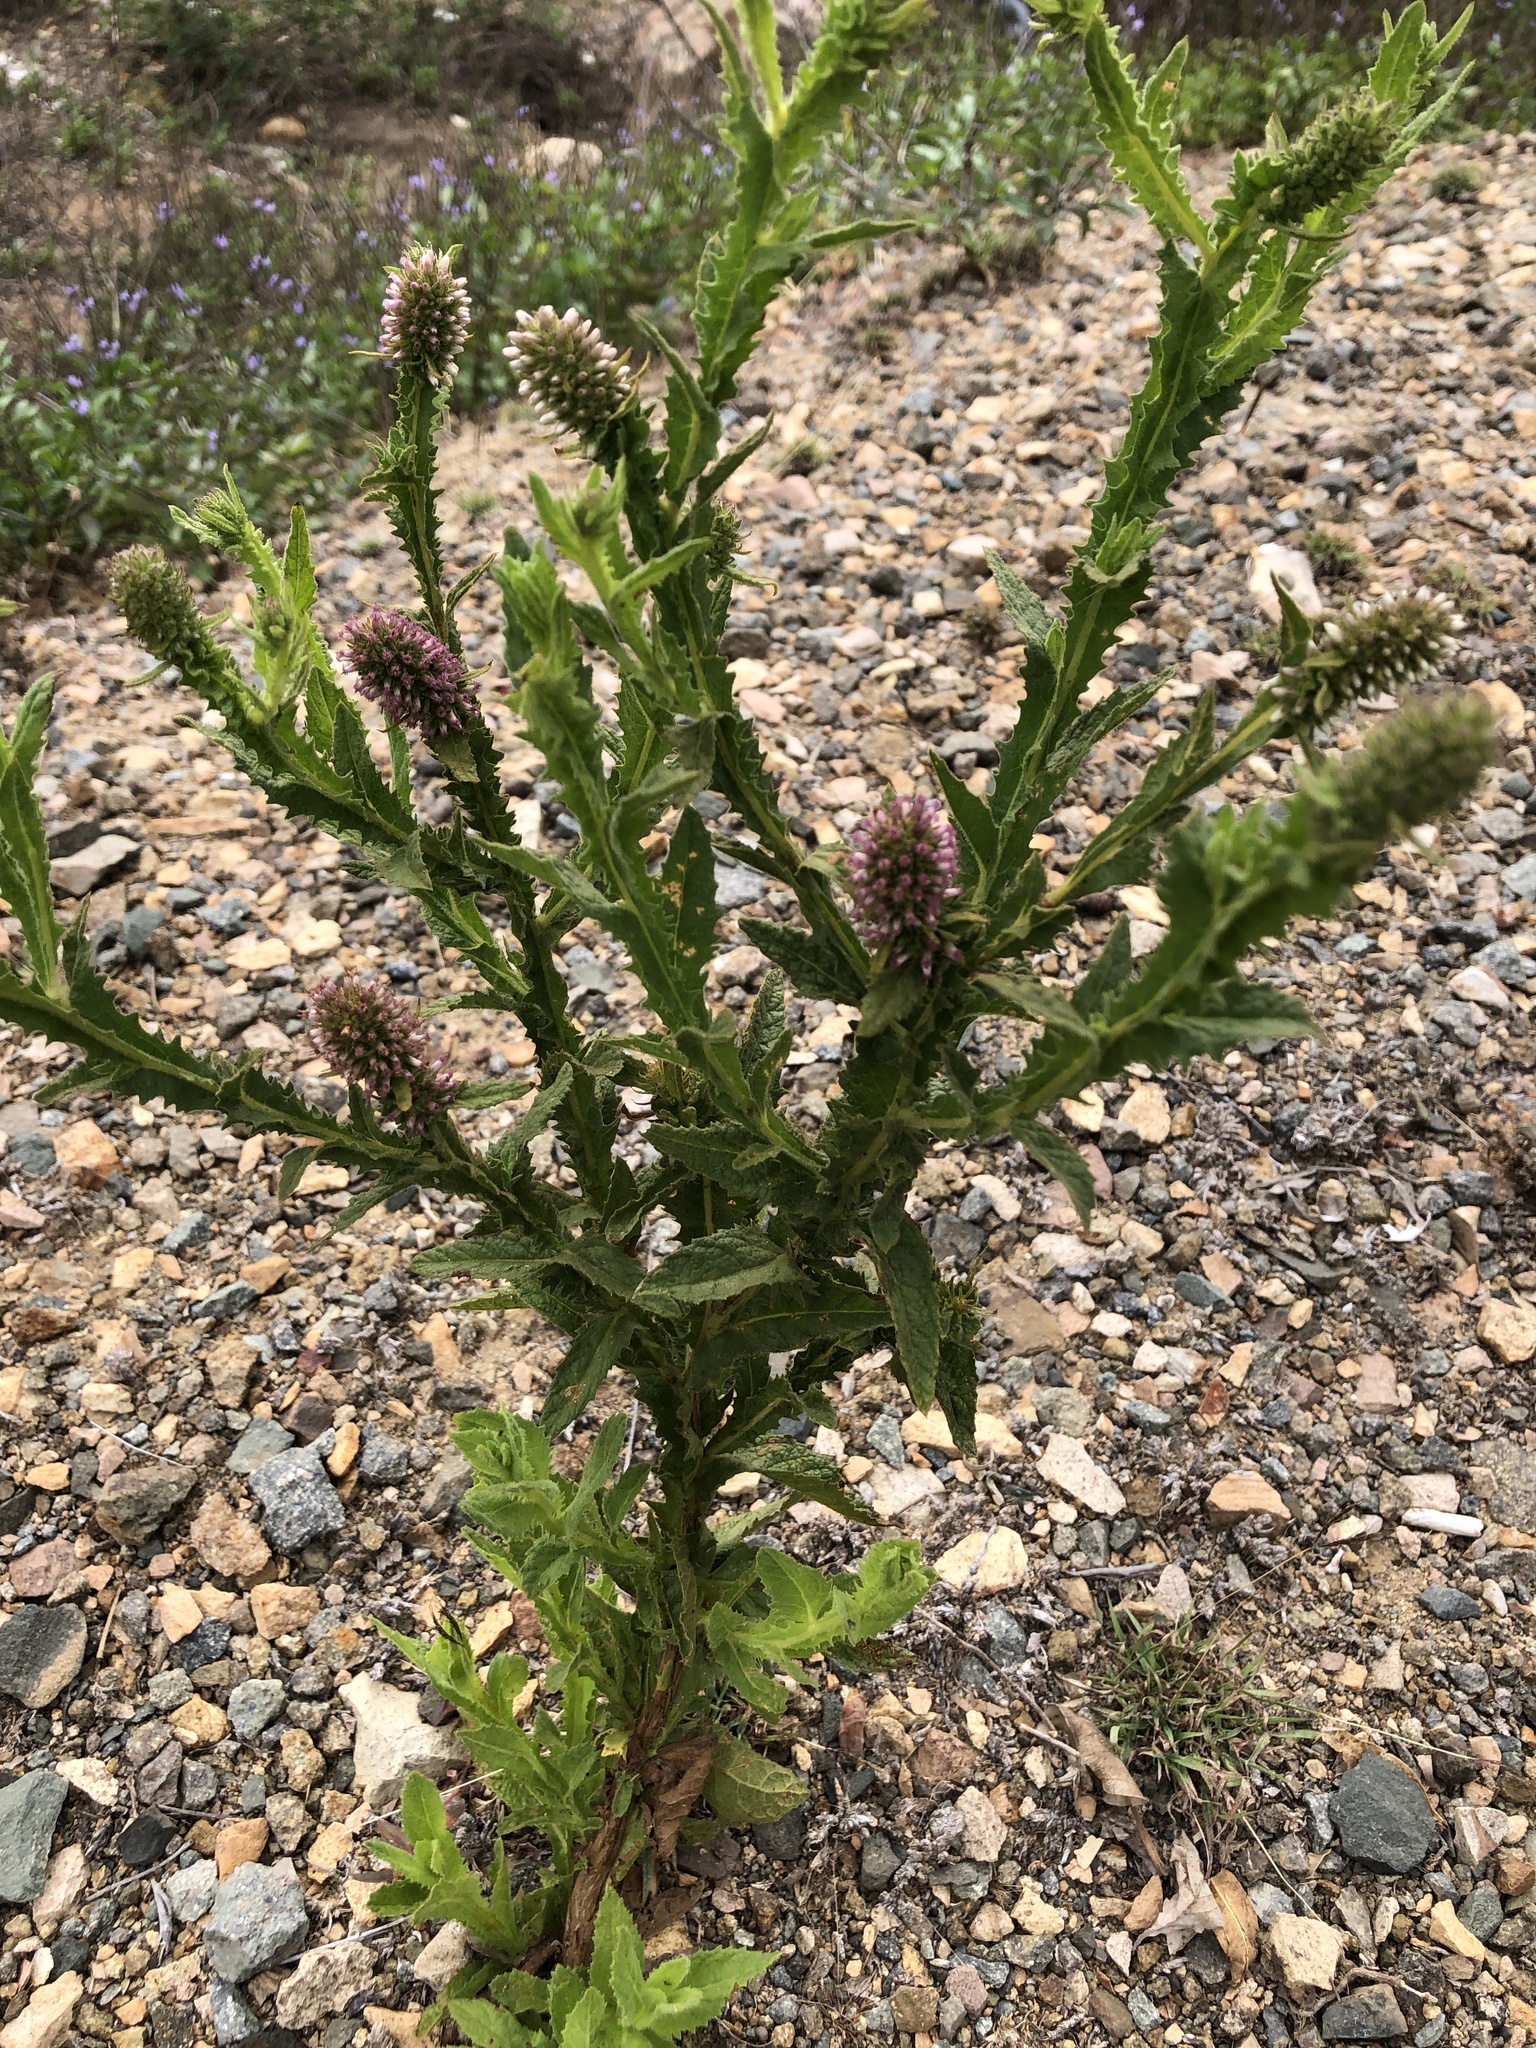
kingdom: Plantae
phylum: Tracheophyta
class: Magnoliopsida
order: Asterales
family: Asteraceae
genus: Pterocaulon
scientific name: Pterocaulon serrulatum
